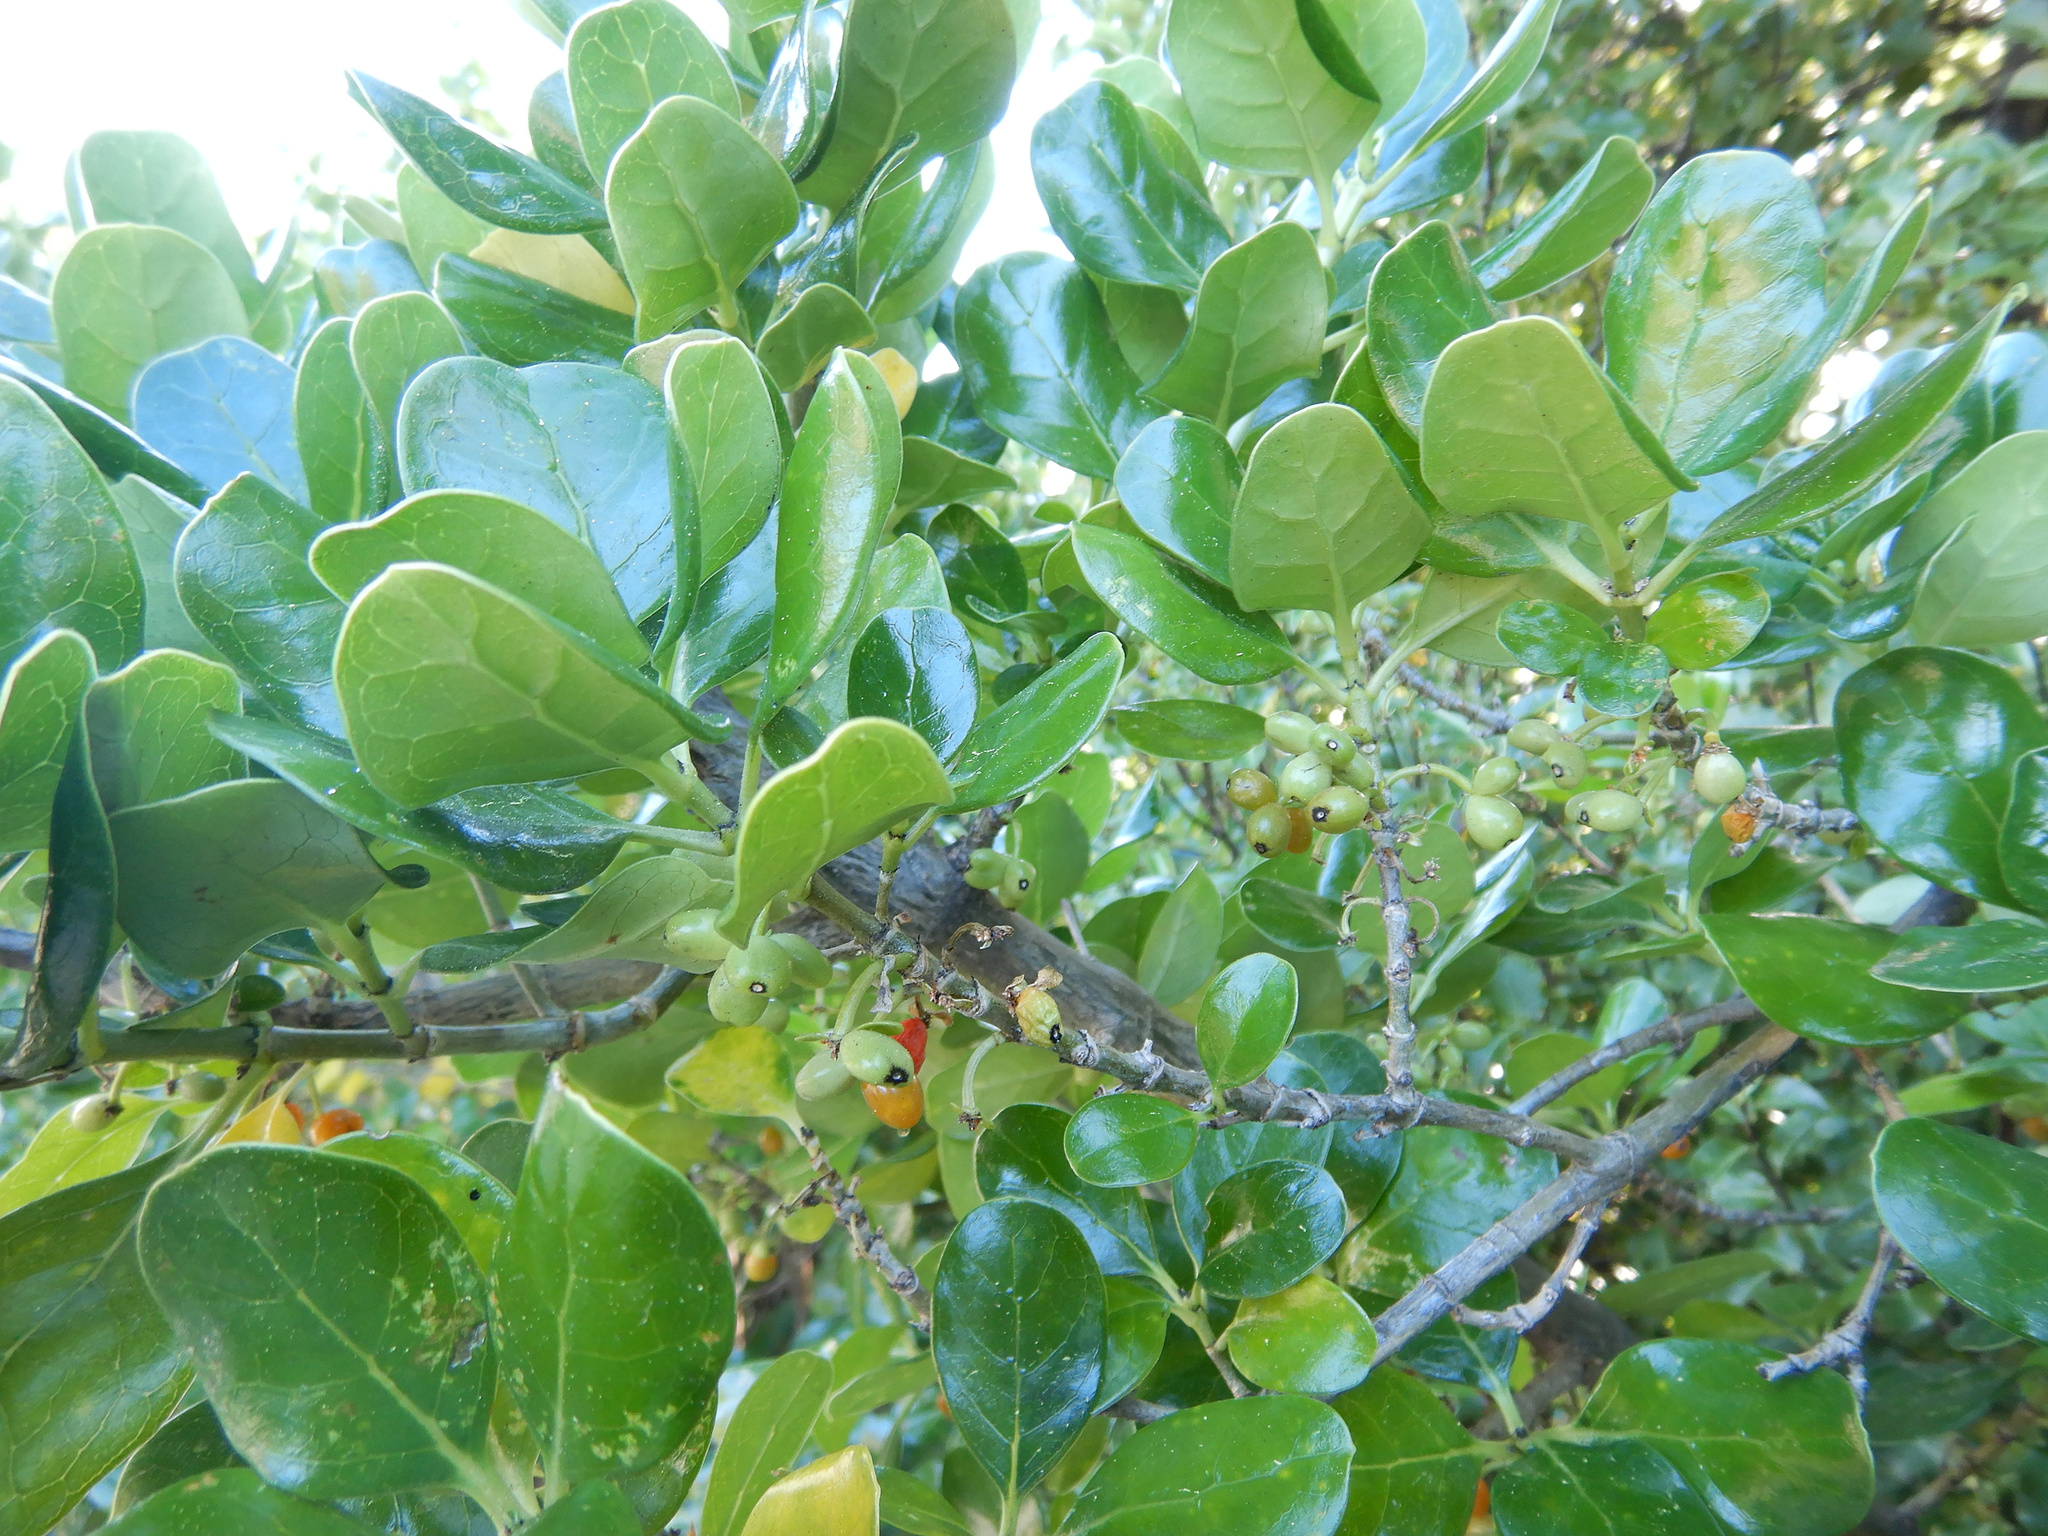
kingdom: Plantae
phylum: Tracheophyta
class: Magnoliopsida
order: Gentianales
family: Rubiaceae
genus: Coprosma
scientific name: Coprosma repens
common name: Tree bedstraw
